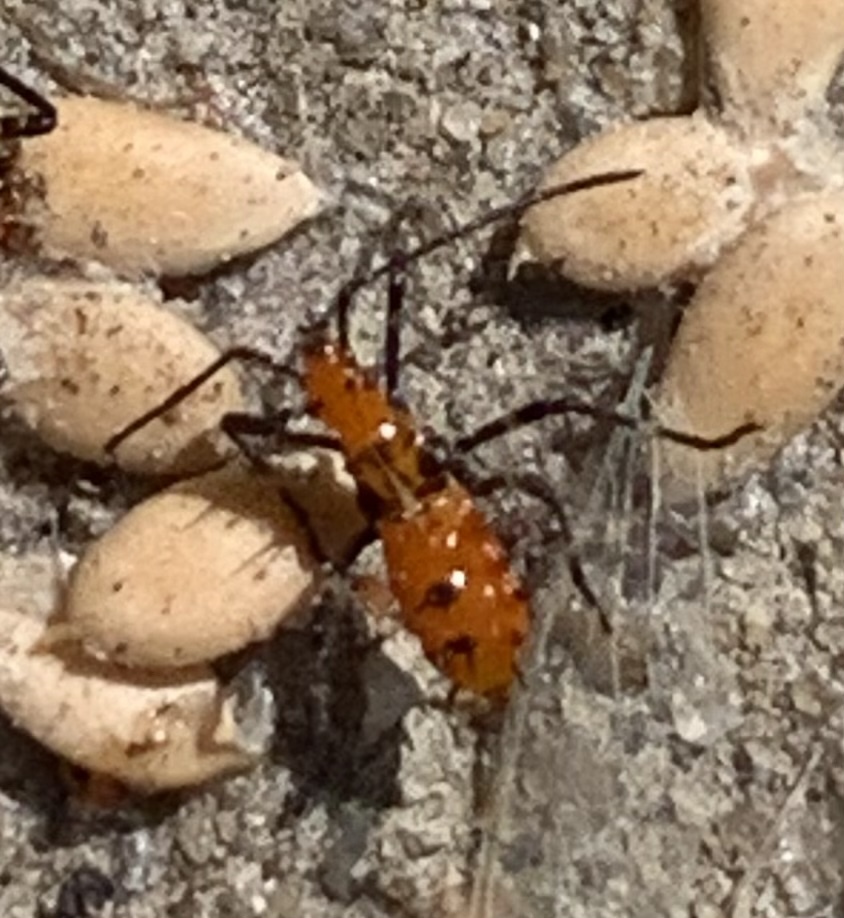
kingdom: Animalia
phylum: Arthropoda
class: Insecta
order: Hemiptera
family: Coreidae
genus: Phthiacnemia
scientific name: Phthiacnemia picta
